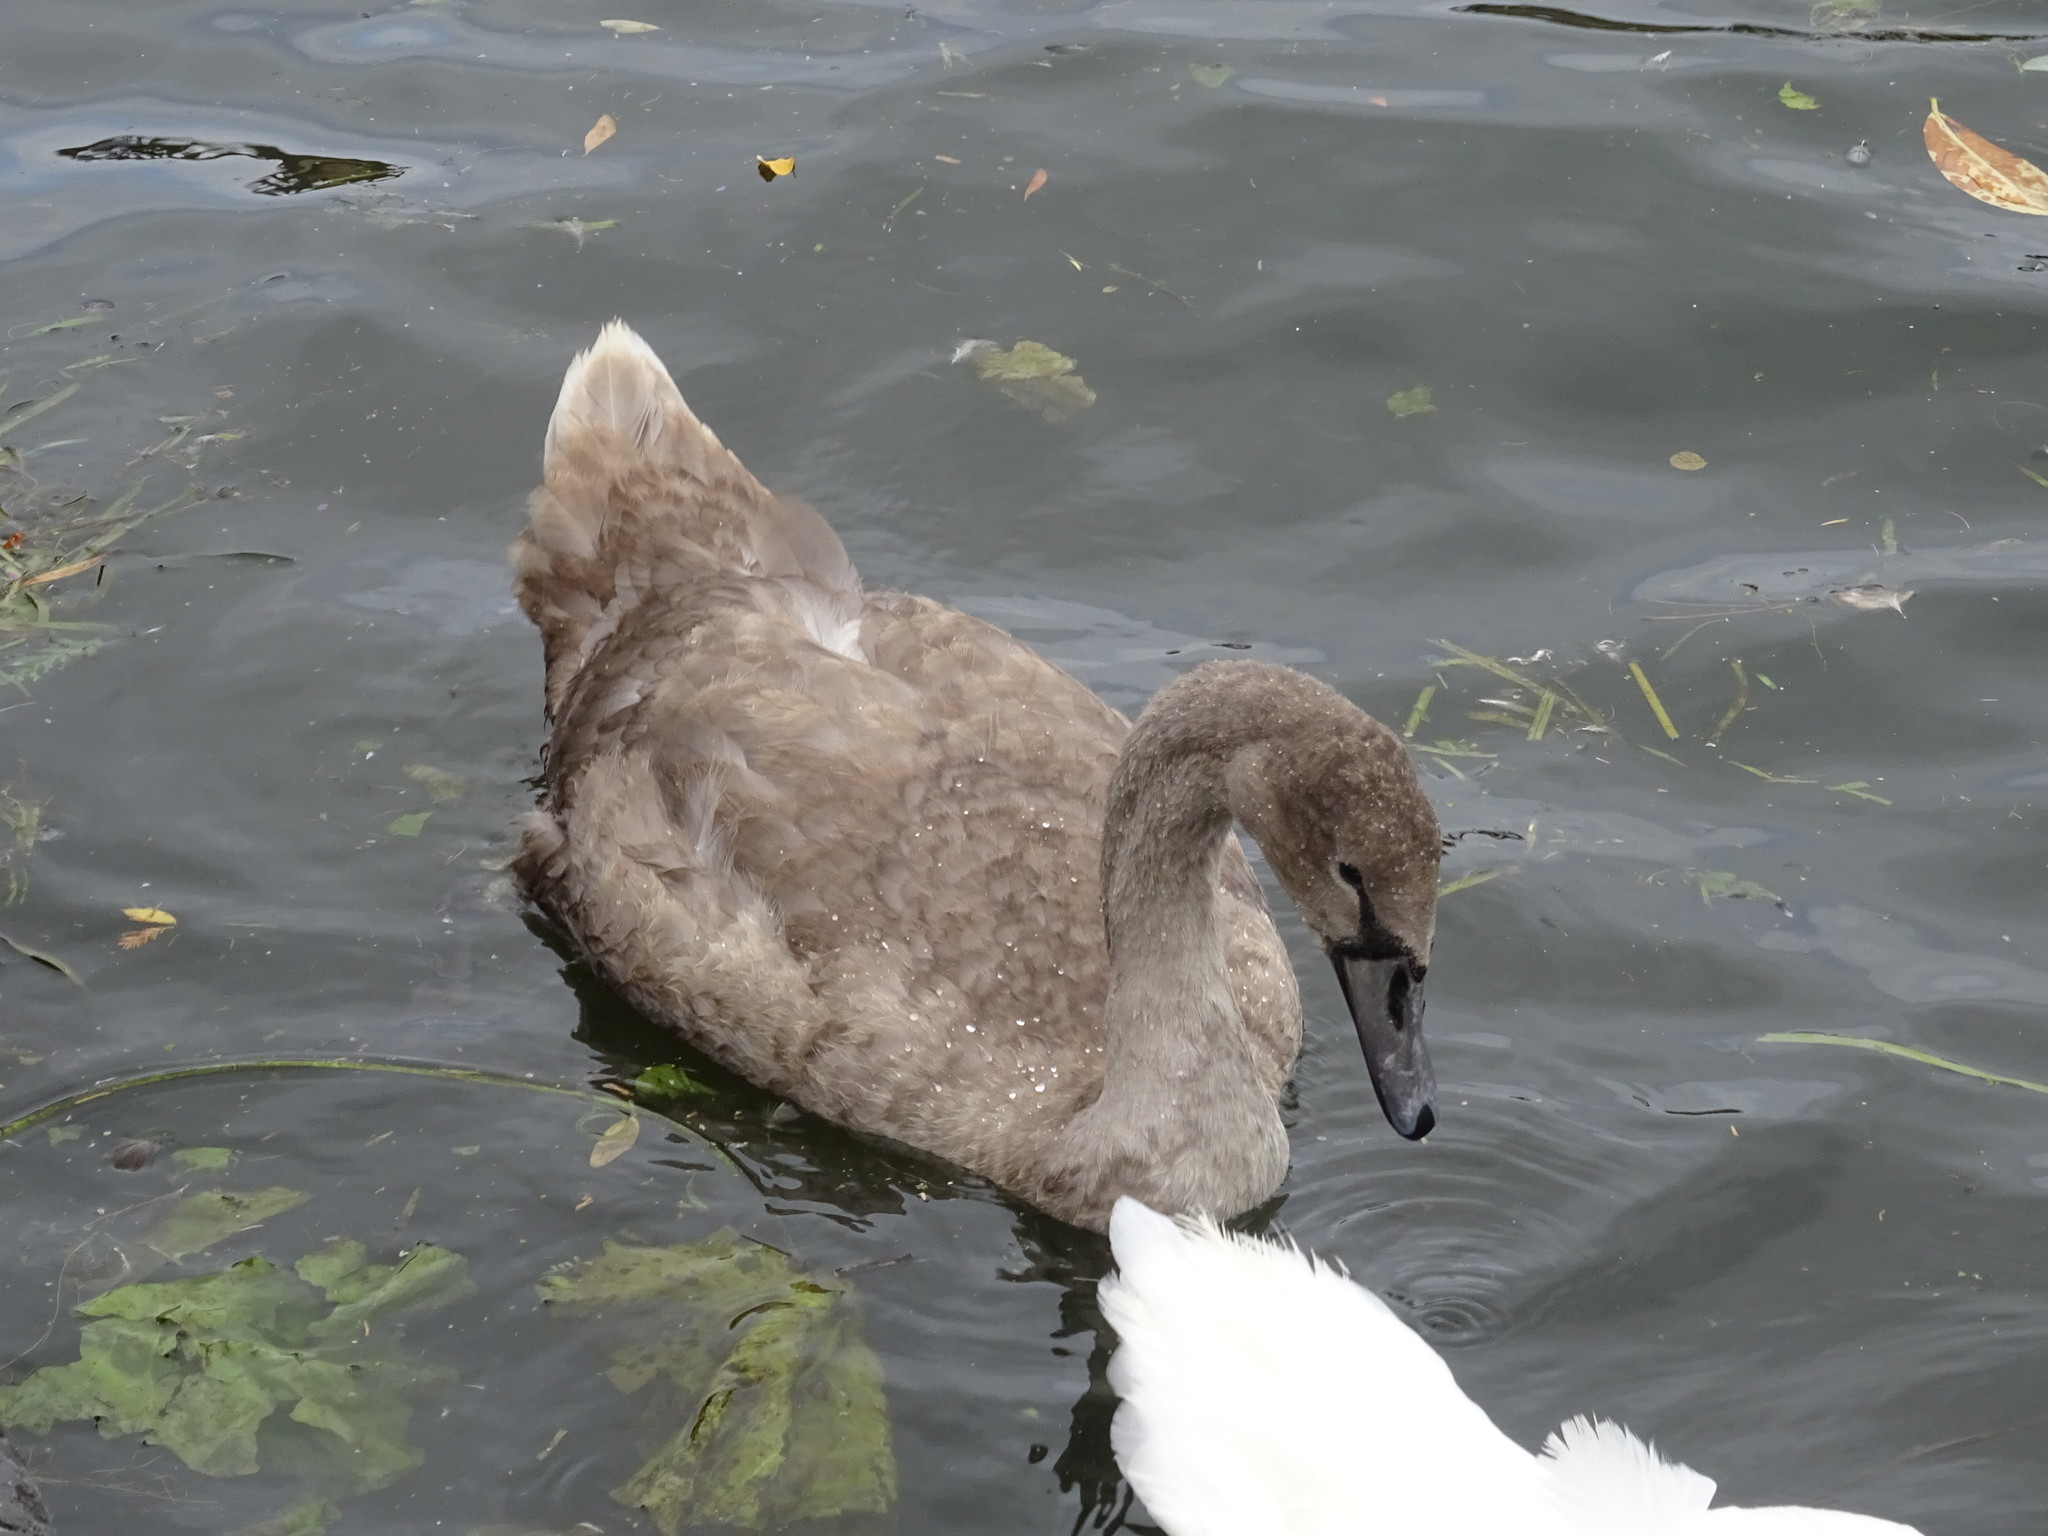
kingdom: Animalia
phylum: Chordata
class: Aves
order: Anseriformes
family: Anatidae
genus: Cygnus
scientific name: Cygnus olor
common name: Mute swan
